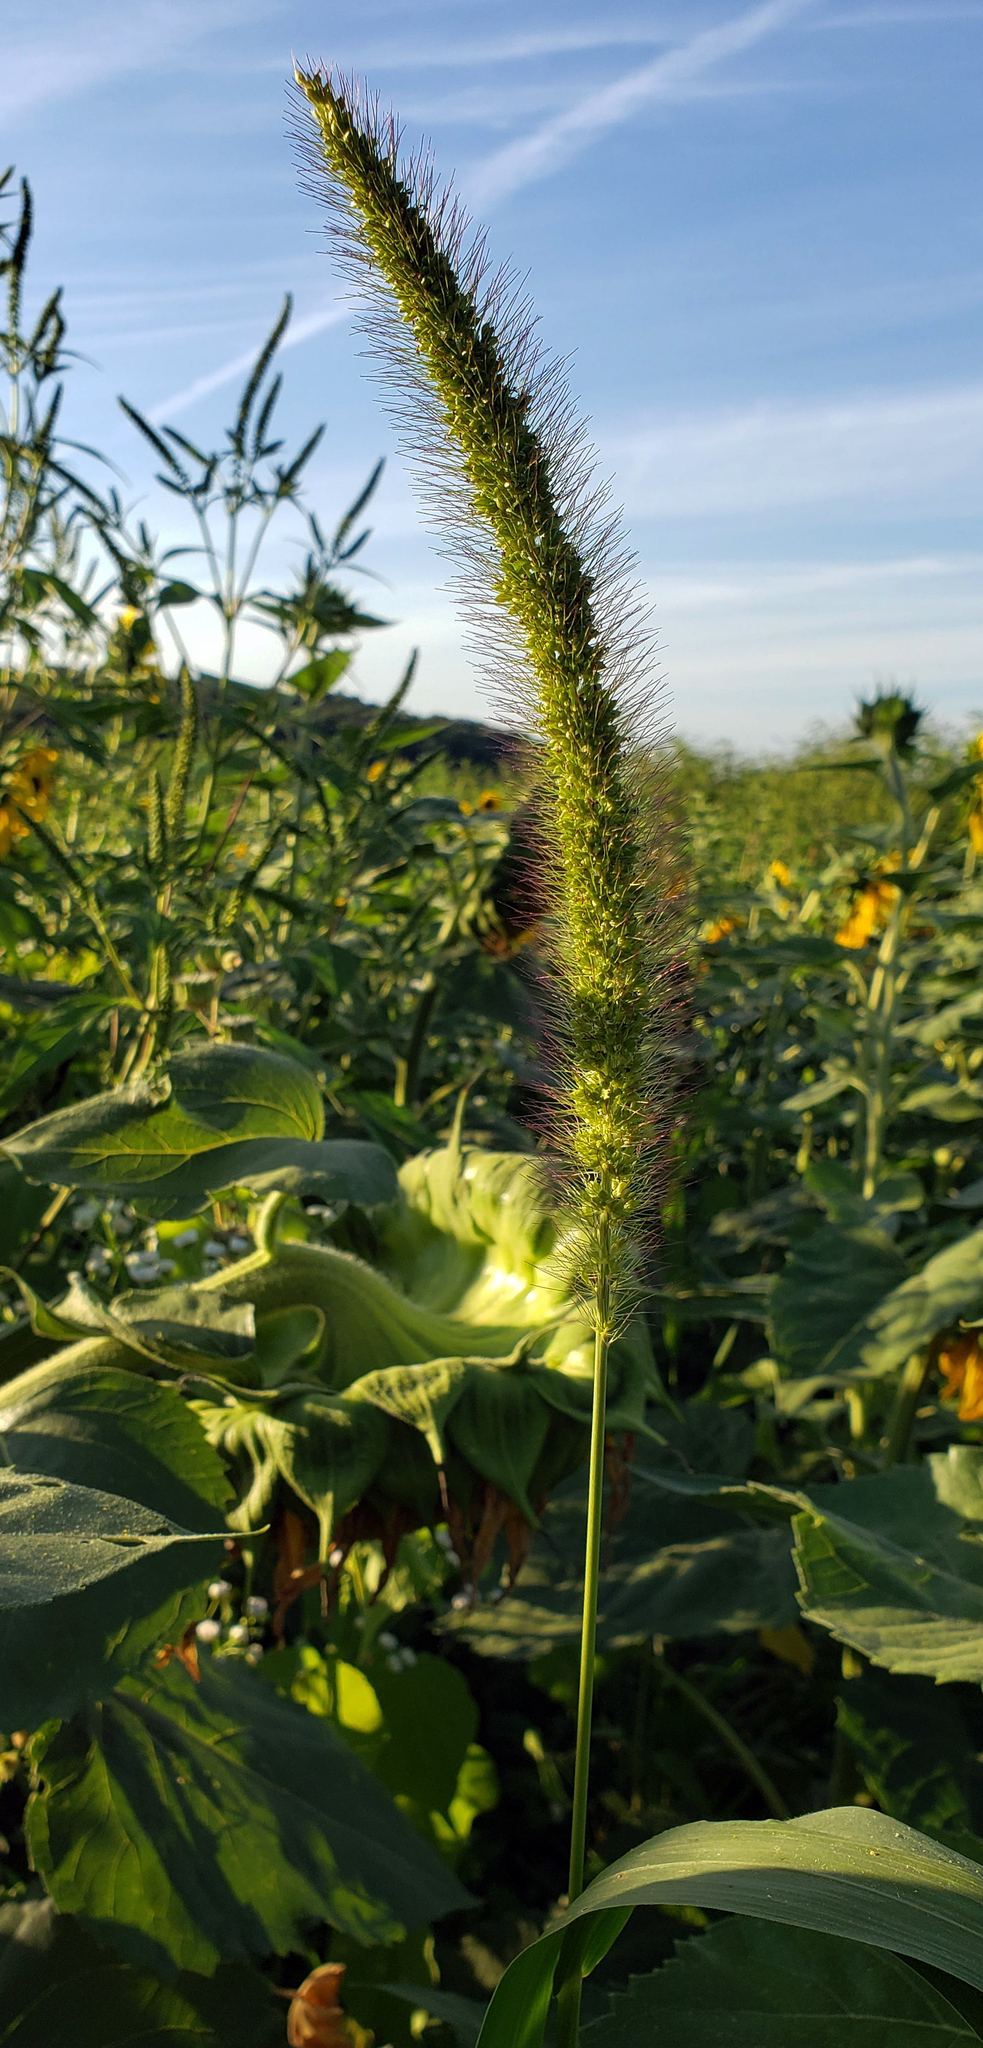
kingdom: Plantae
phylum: Tracheophyta
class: Liliopsida
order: Poales
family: Poaceae
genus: Setaria
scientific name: Setaria faberi
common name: Nodding bristle-grass
